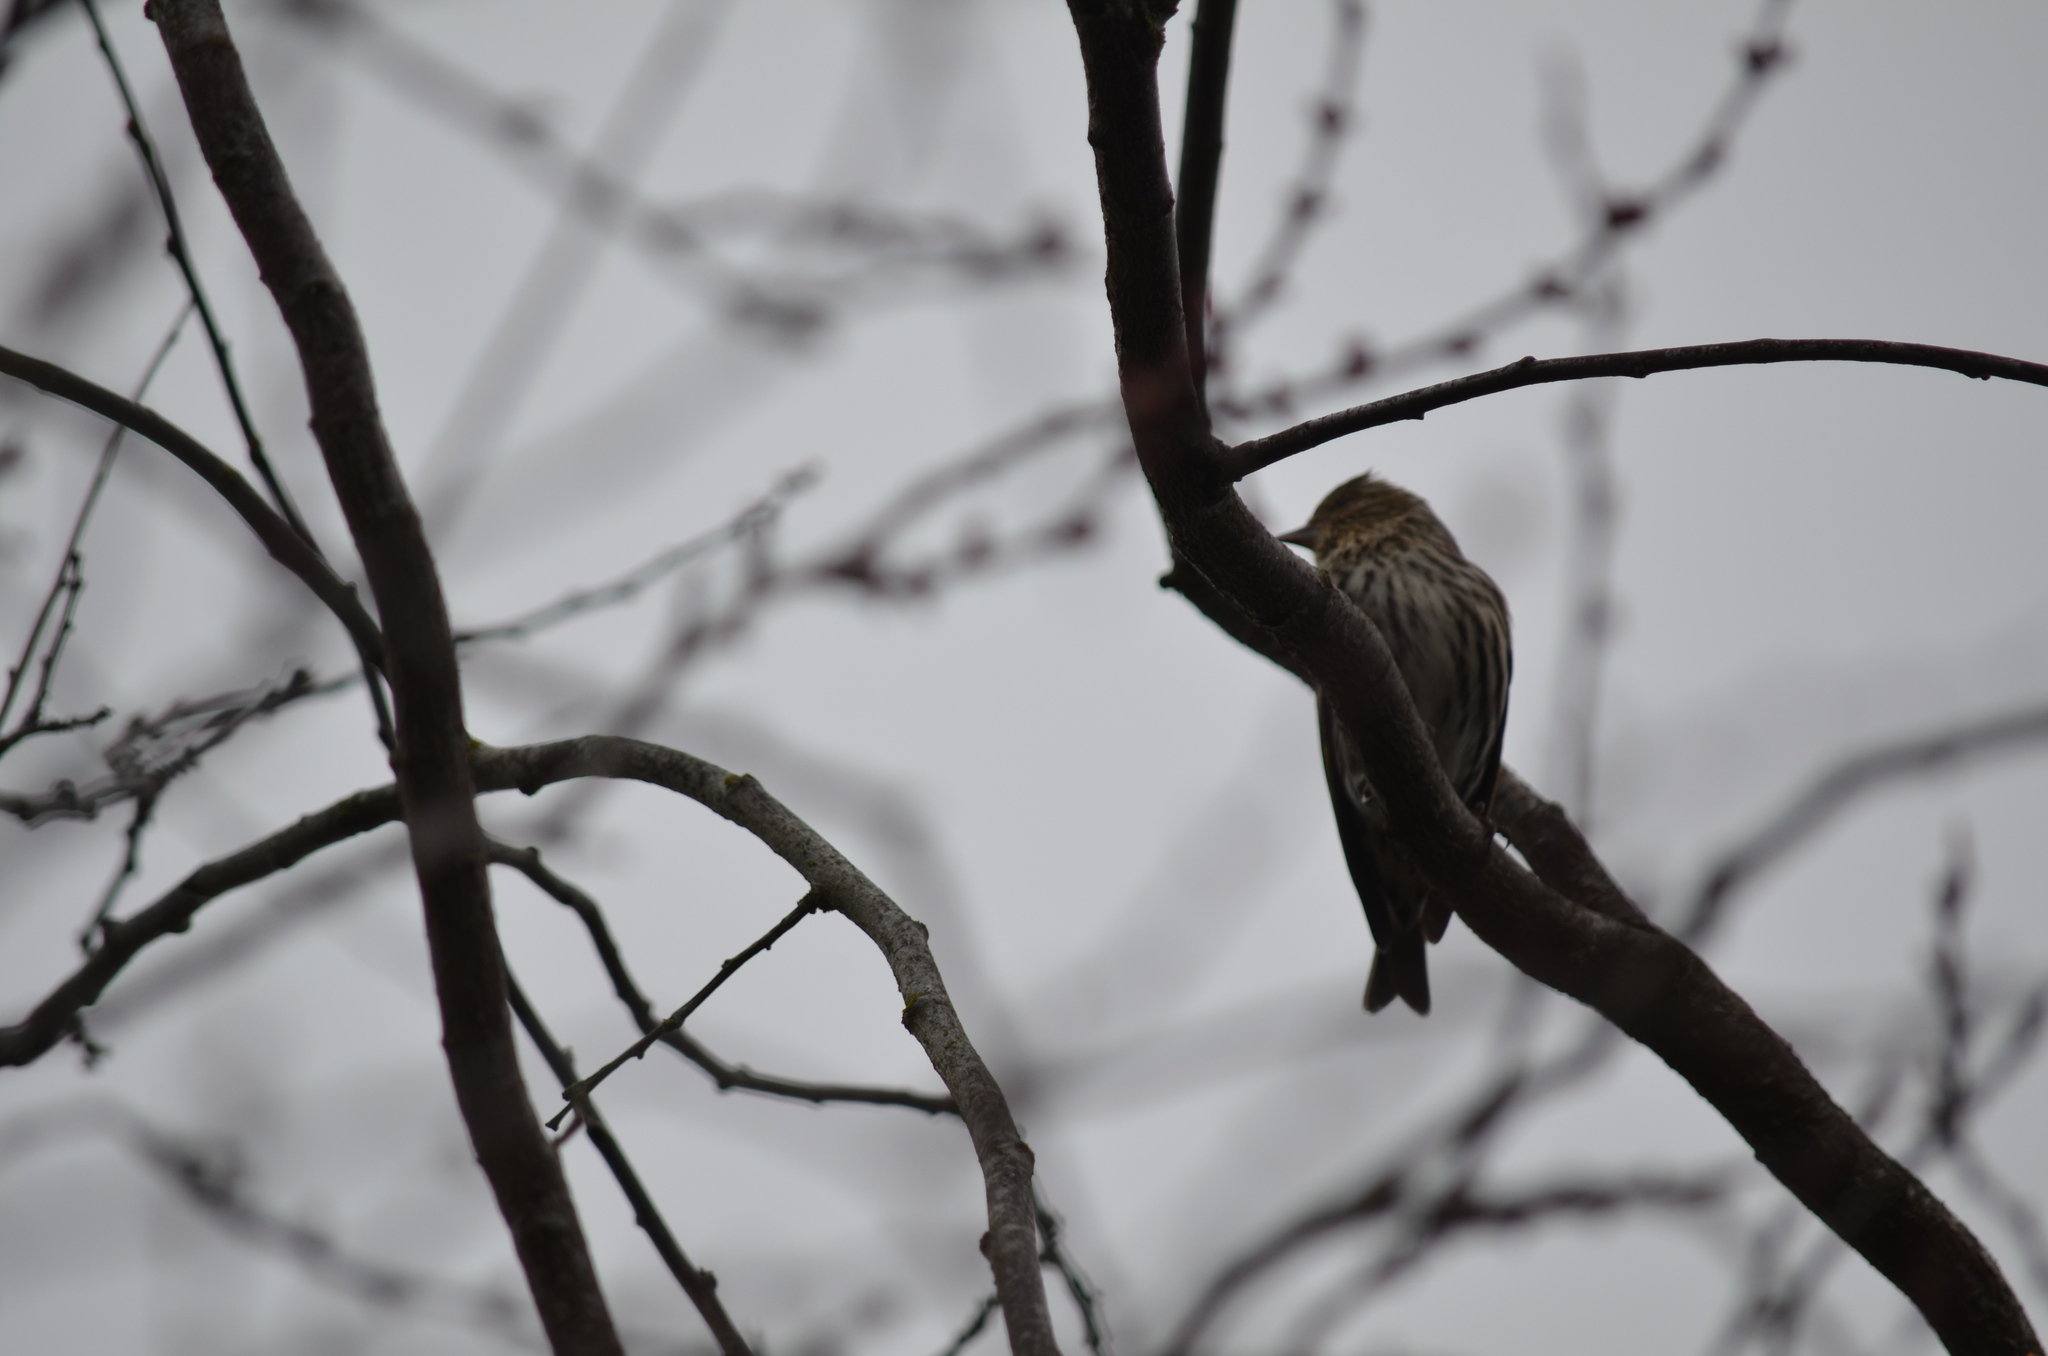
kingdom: Animalia
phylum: Chordata
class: Aves
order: Passeriformes
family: Fringillidae
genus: Spinus
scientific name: Spinus pinus
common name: Pine siskin
